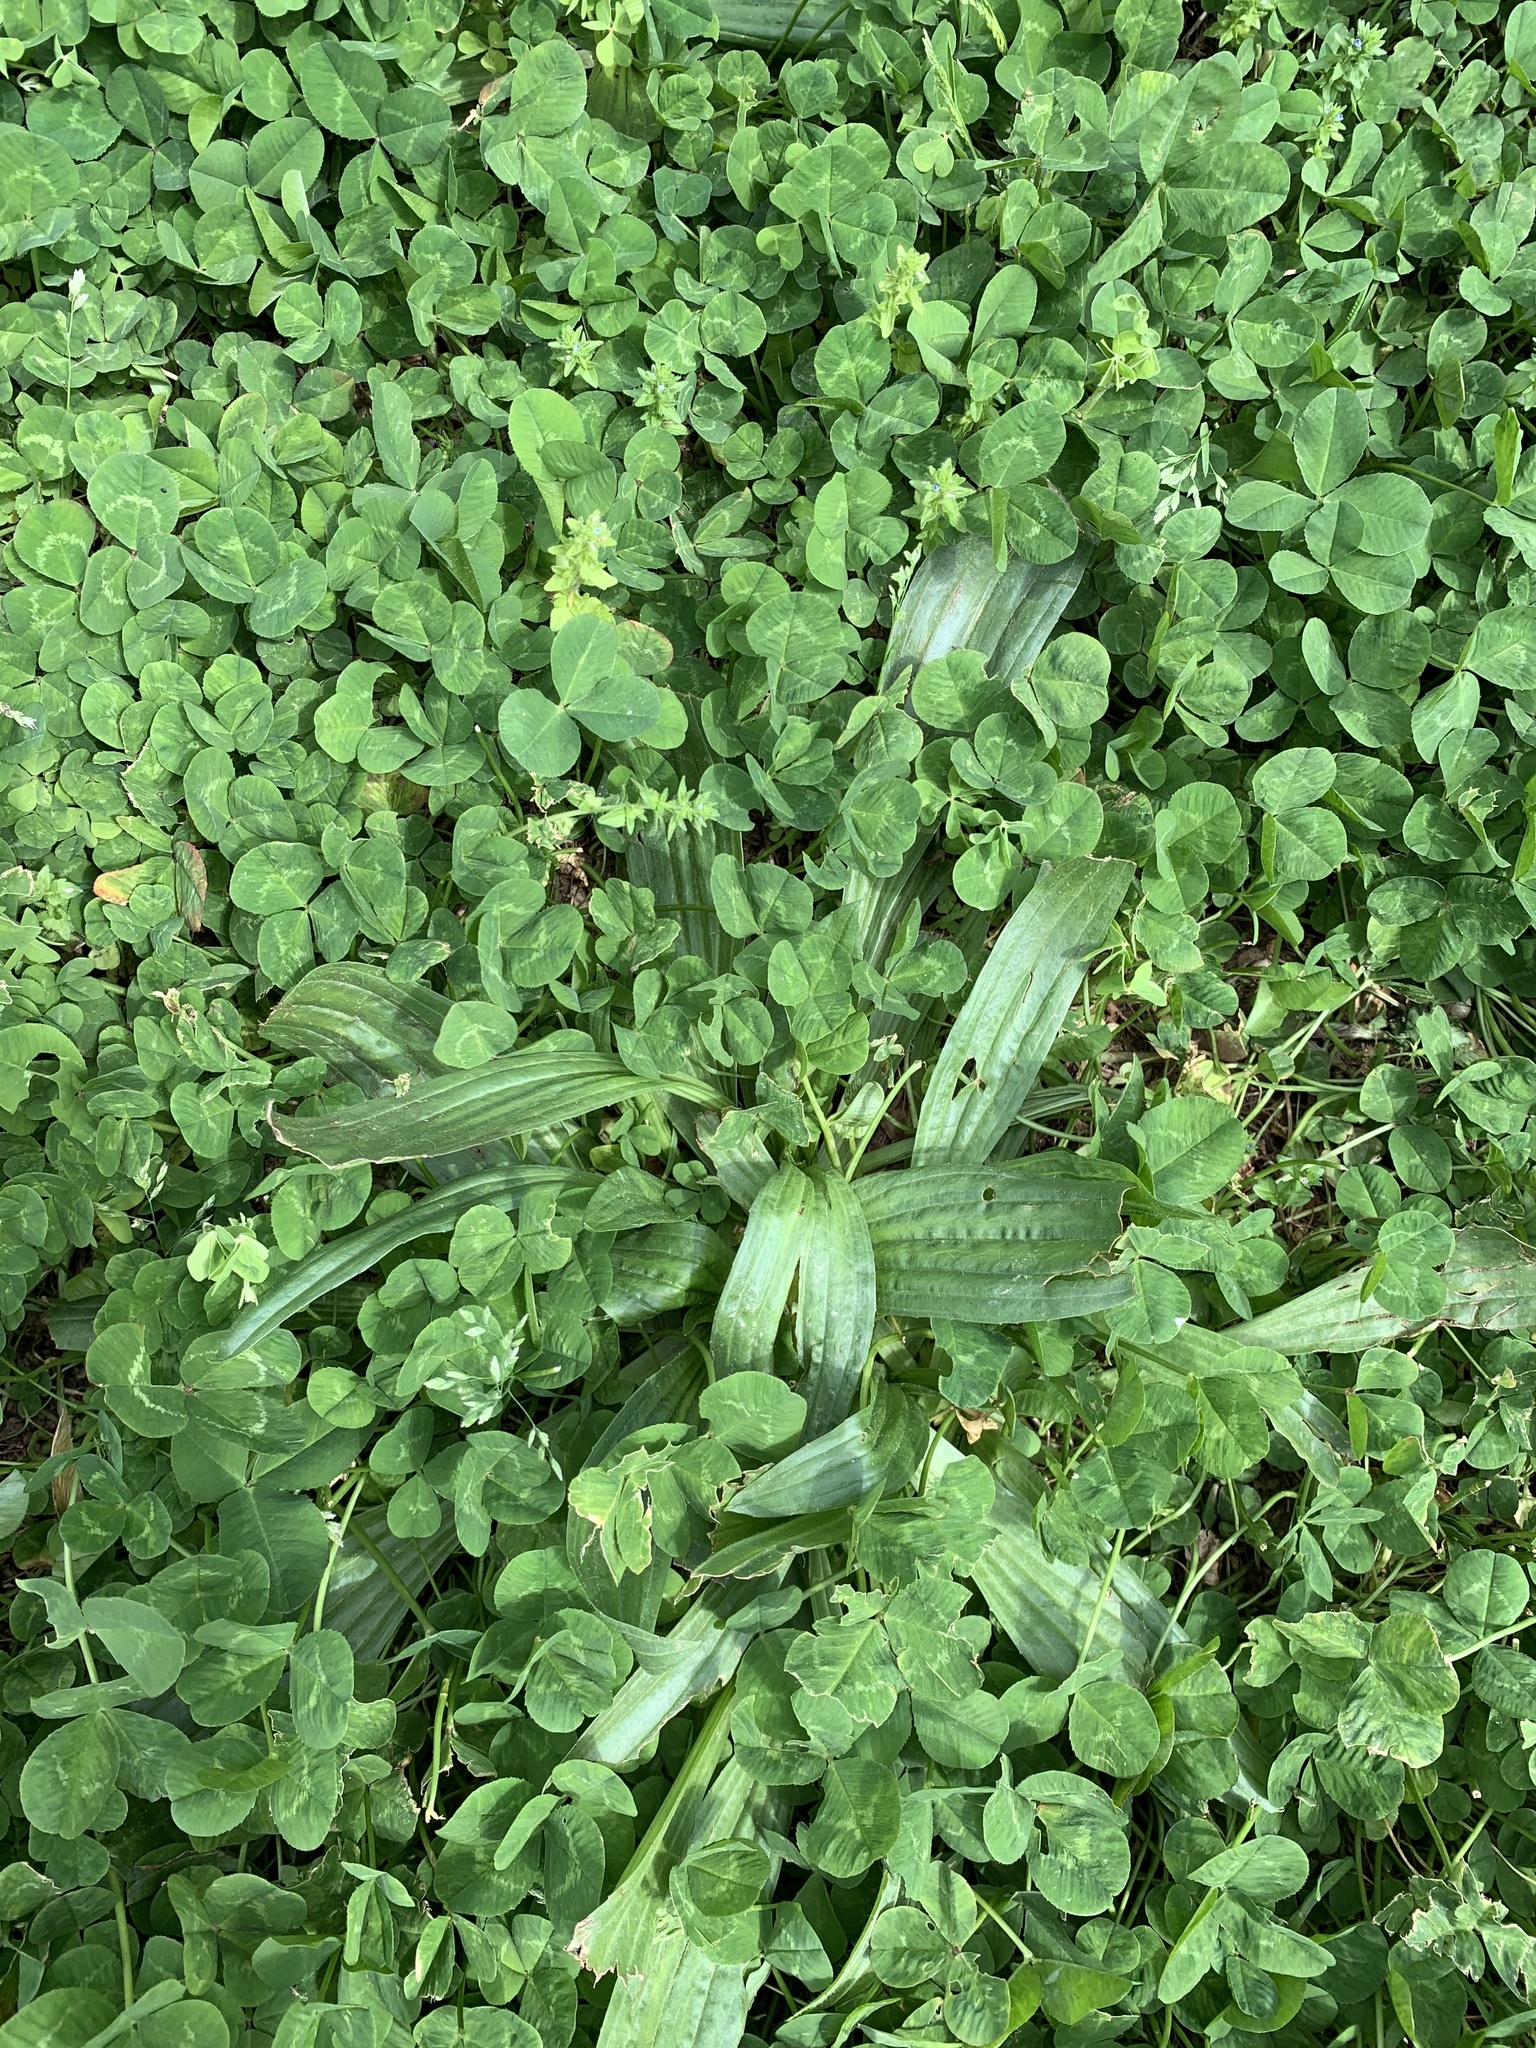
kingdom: Plantae
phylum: Tracheophyta
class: Magnoliopsida
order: Lamiales
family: Plantaginaceae
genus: Plantago
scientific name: Plantago lanceolata
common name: Ribwort plantain
